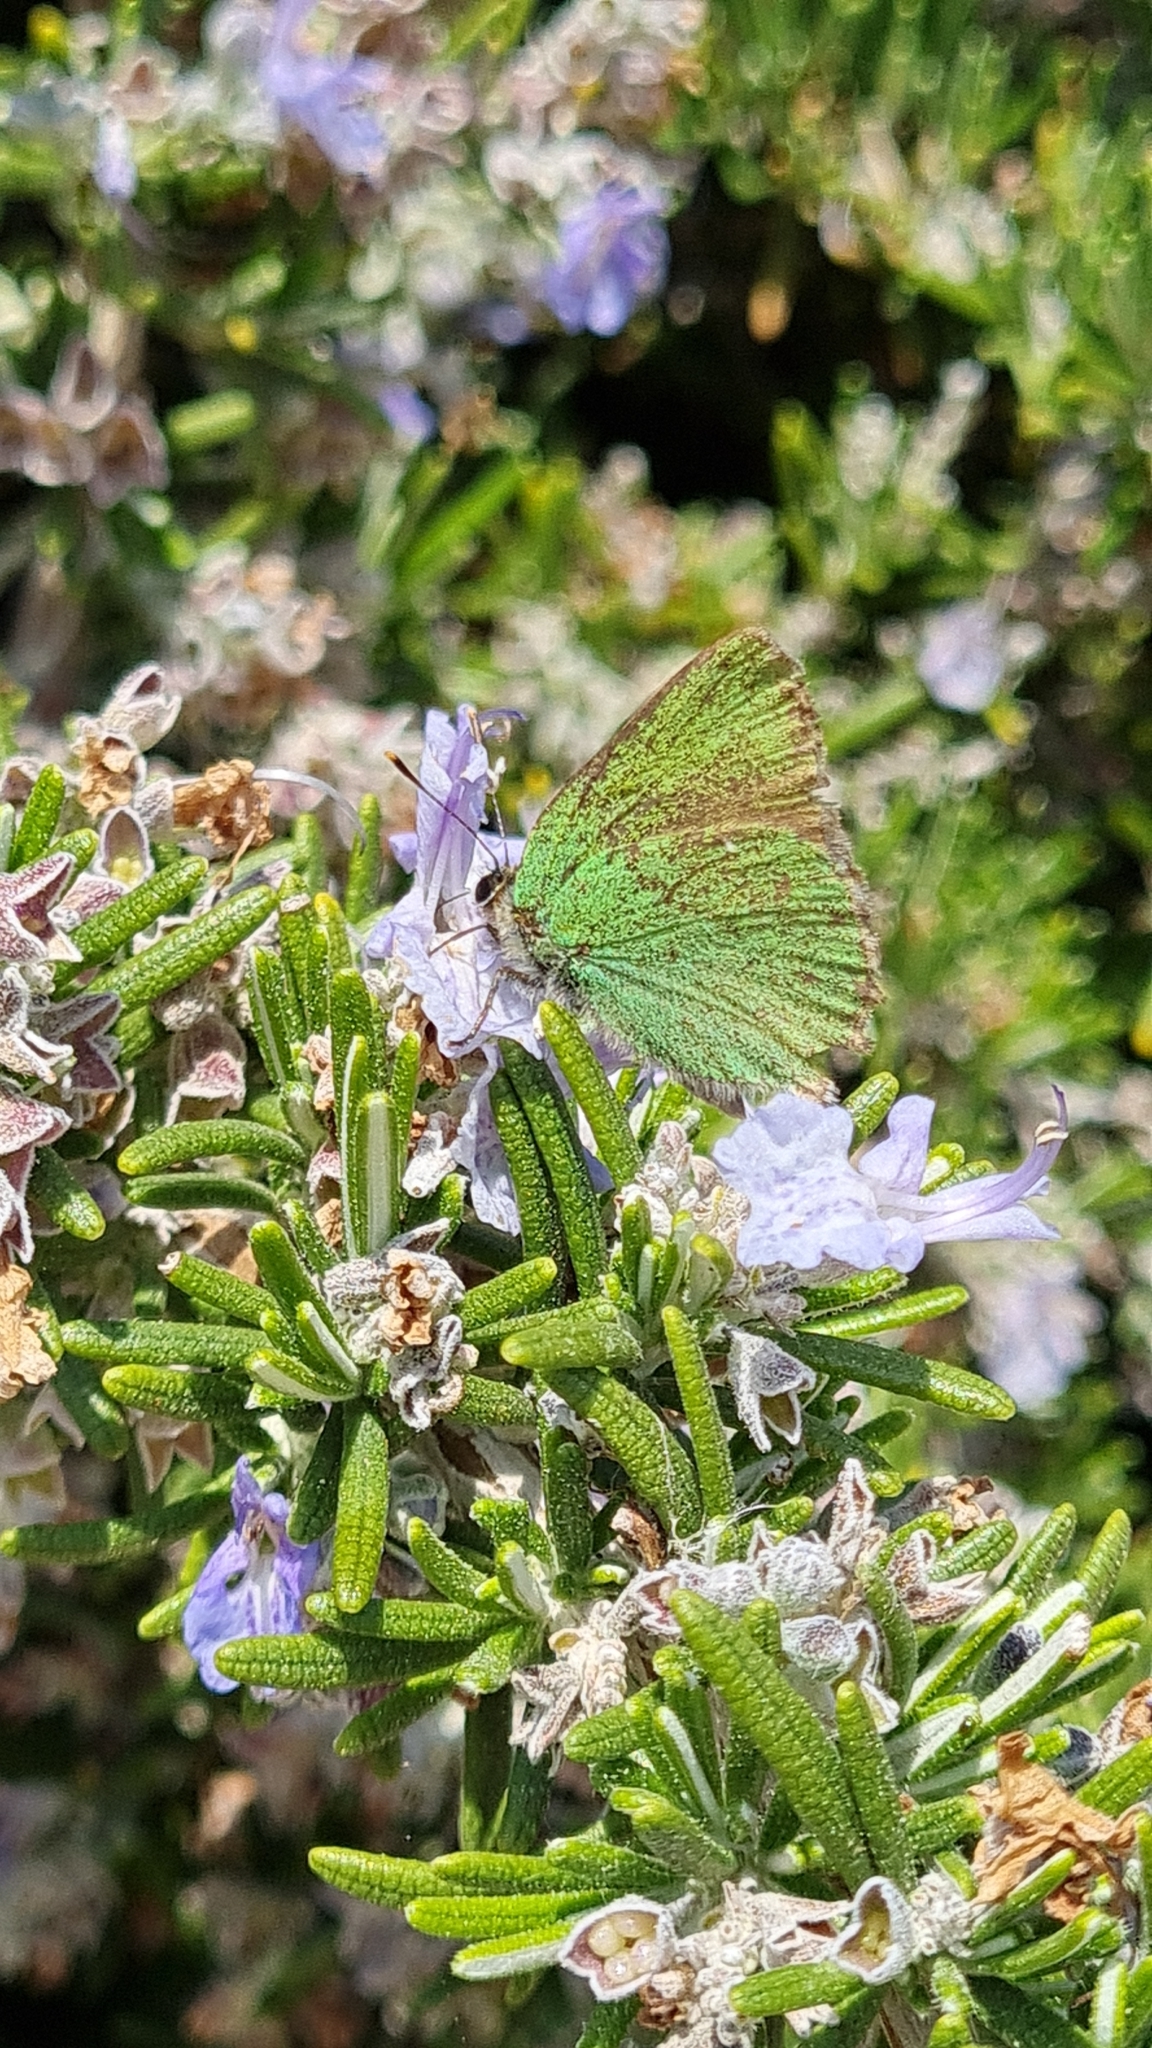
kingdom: Animalia
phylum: Arthropoda
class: Insecta
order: Lepidoptera
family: Lycaenidae
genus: Callophrys
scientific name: Callophrys rubi
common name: Green hairstreak
